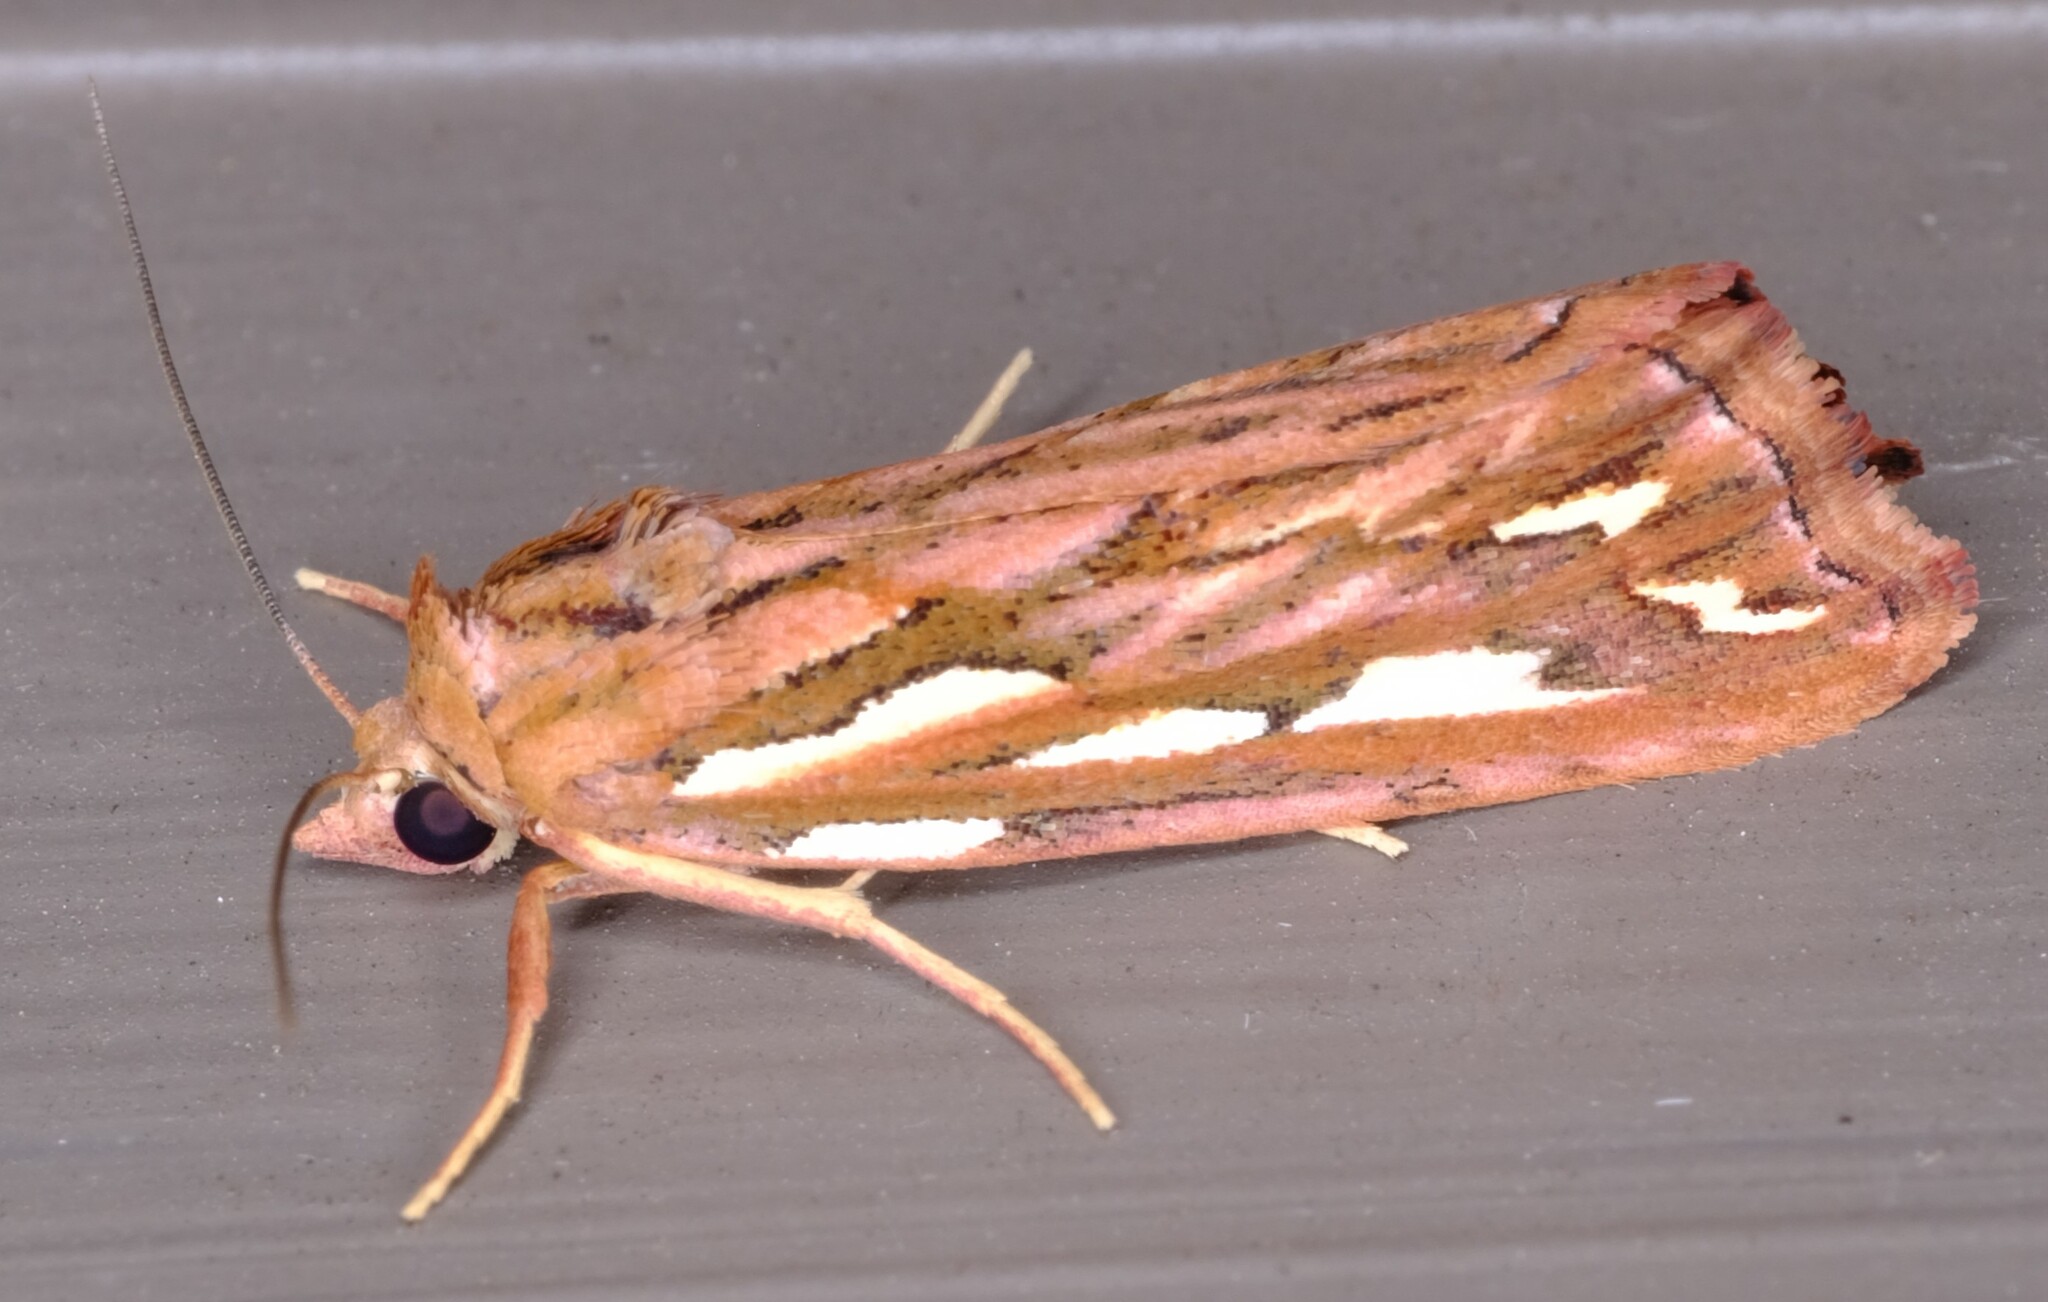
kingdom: Animalia
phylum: Arthropoda
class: Insecta
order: Lepidoptera
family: Erebidae
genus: Meyrickella
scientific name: Meyrickella torquesauria
